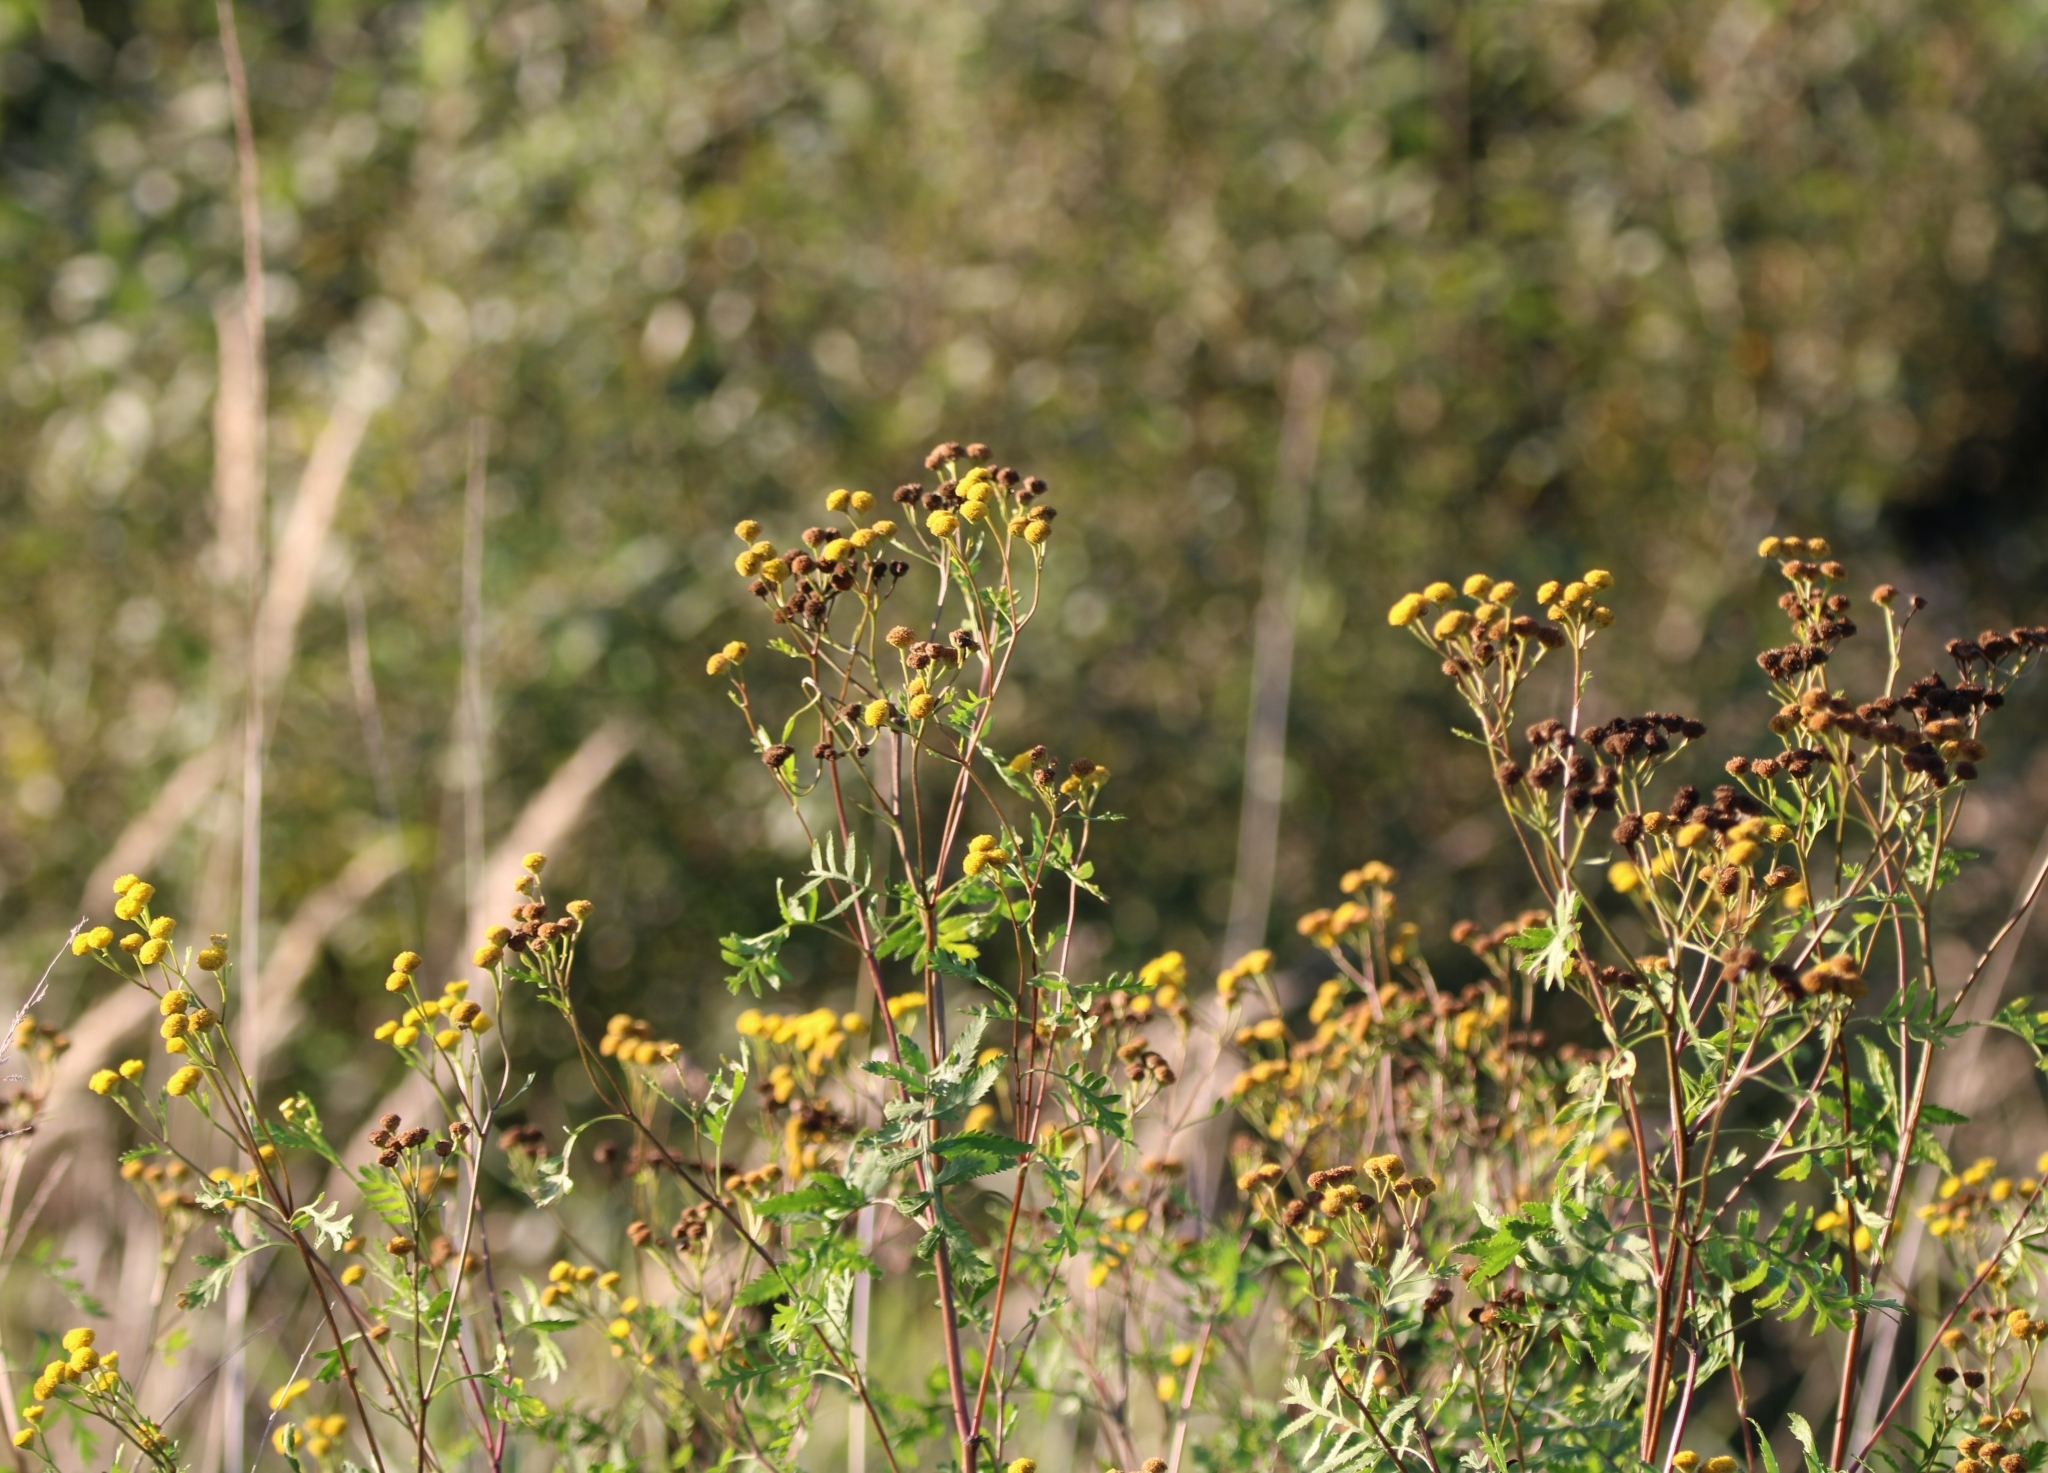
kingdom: Plantae
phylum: Tracheophyta
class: Magnoliopsida
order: Asterales
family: Asteraceae
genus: Tanacetum
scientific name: Tanacetum vulgare
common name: Common tansy
